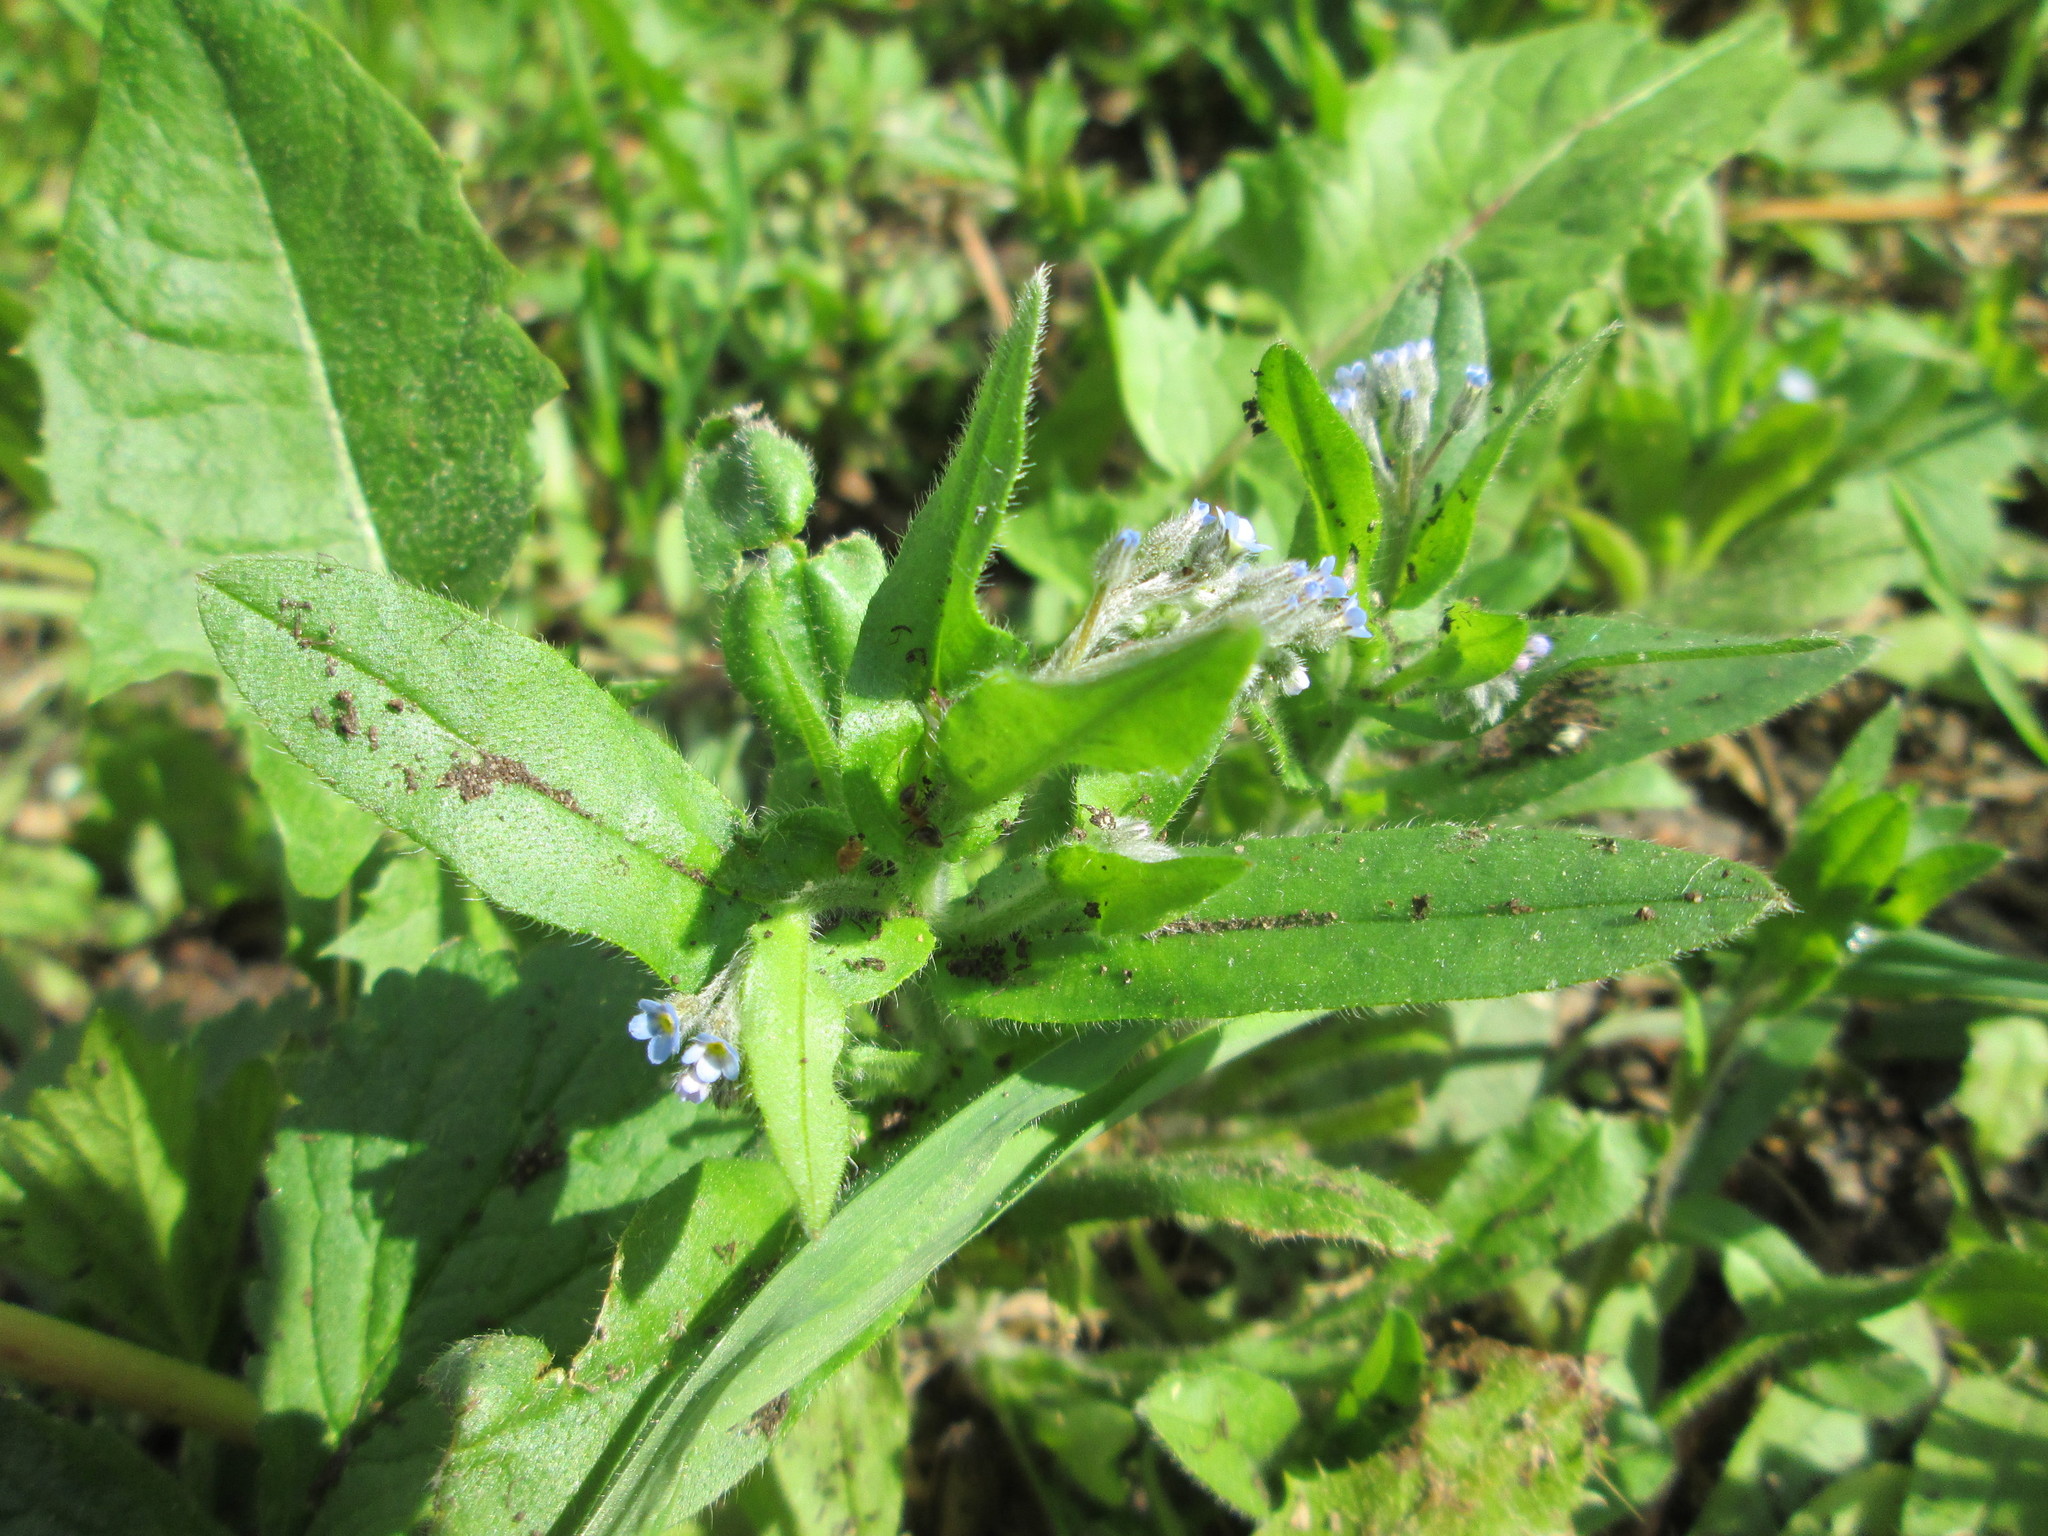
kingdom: Plantae
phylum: Tracheophyta
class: Magnoliopsida
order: Boraginales
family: Boraginaceae
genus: Myosotis
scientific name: Myosotis arvensis
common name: Field forget-me-not
